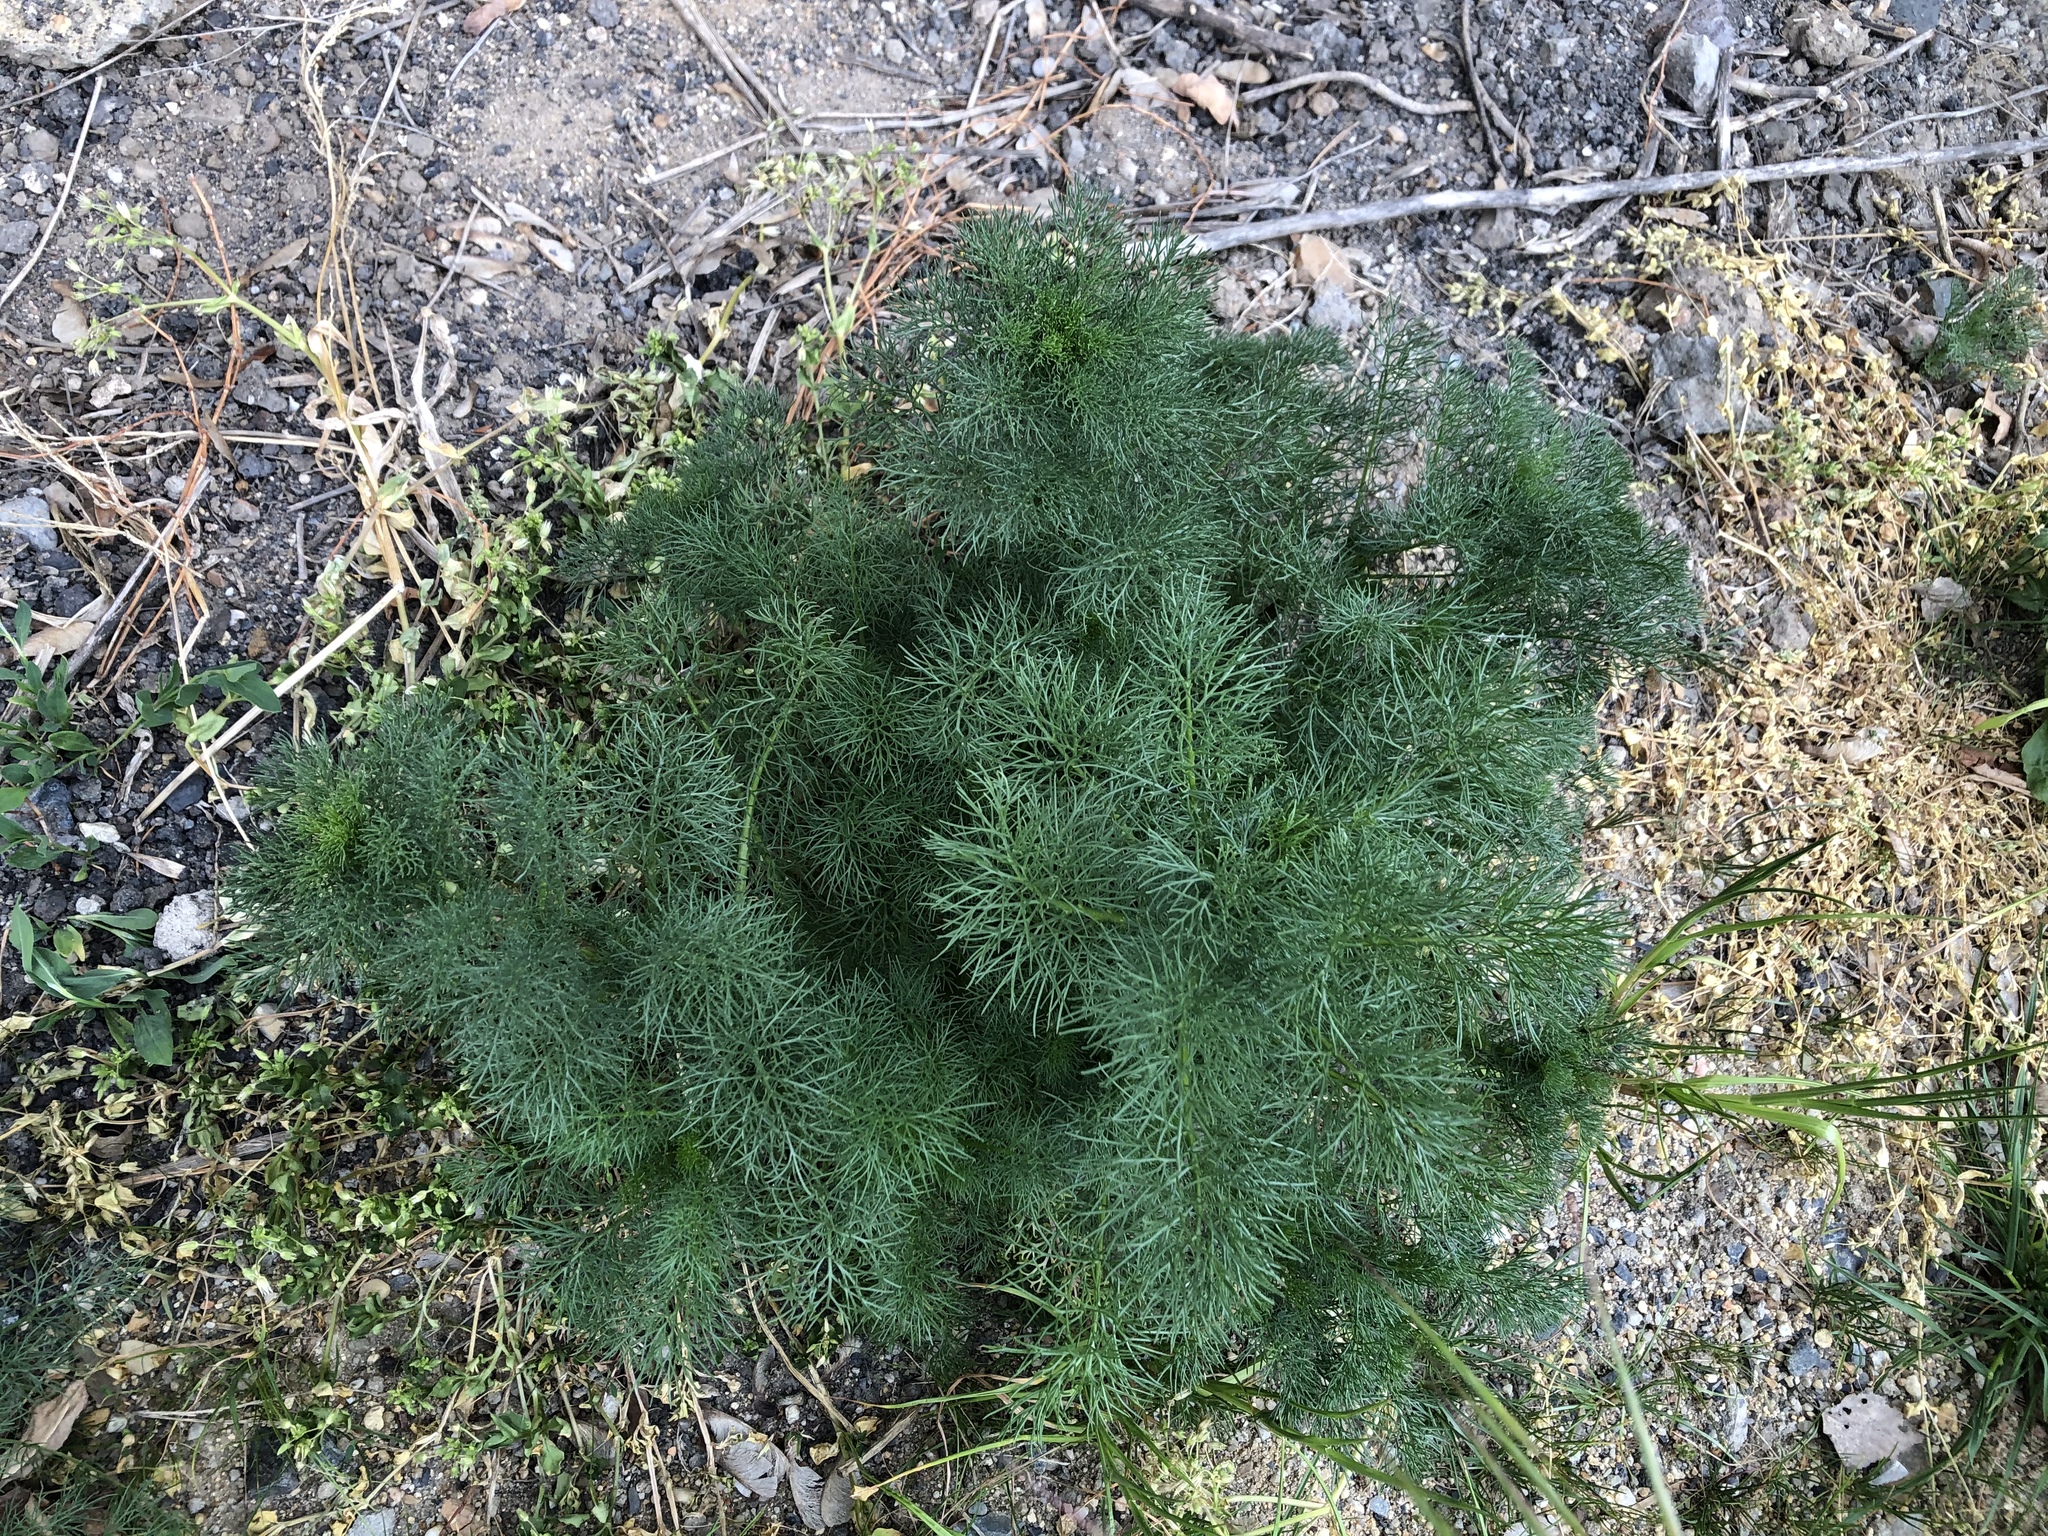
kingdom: Plantae
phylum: Tracheophyta
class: Magnoliopsida
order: Asterales
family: Asteraceae
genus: Tripleurospermum
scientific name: Tripleurospermum inodorum
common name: Scentless mayweed
